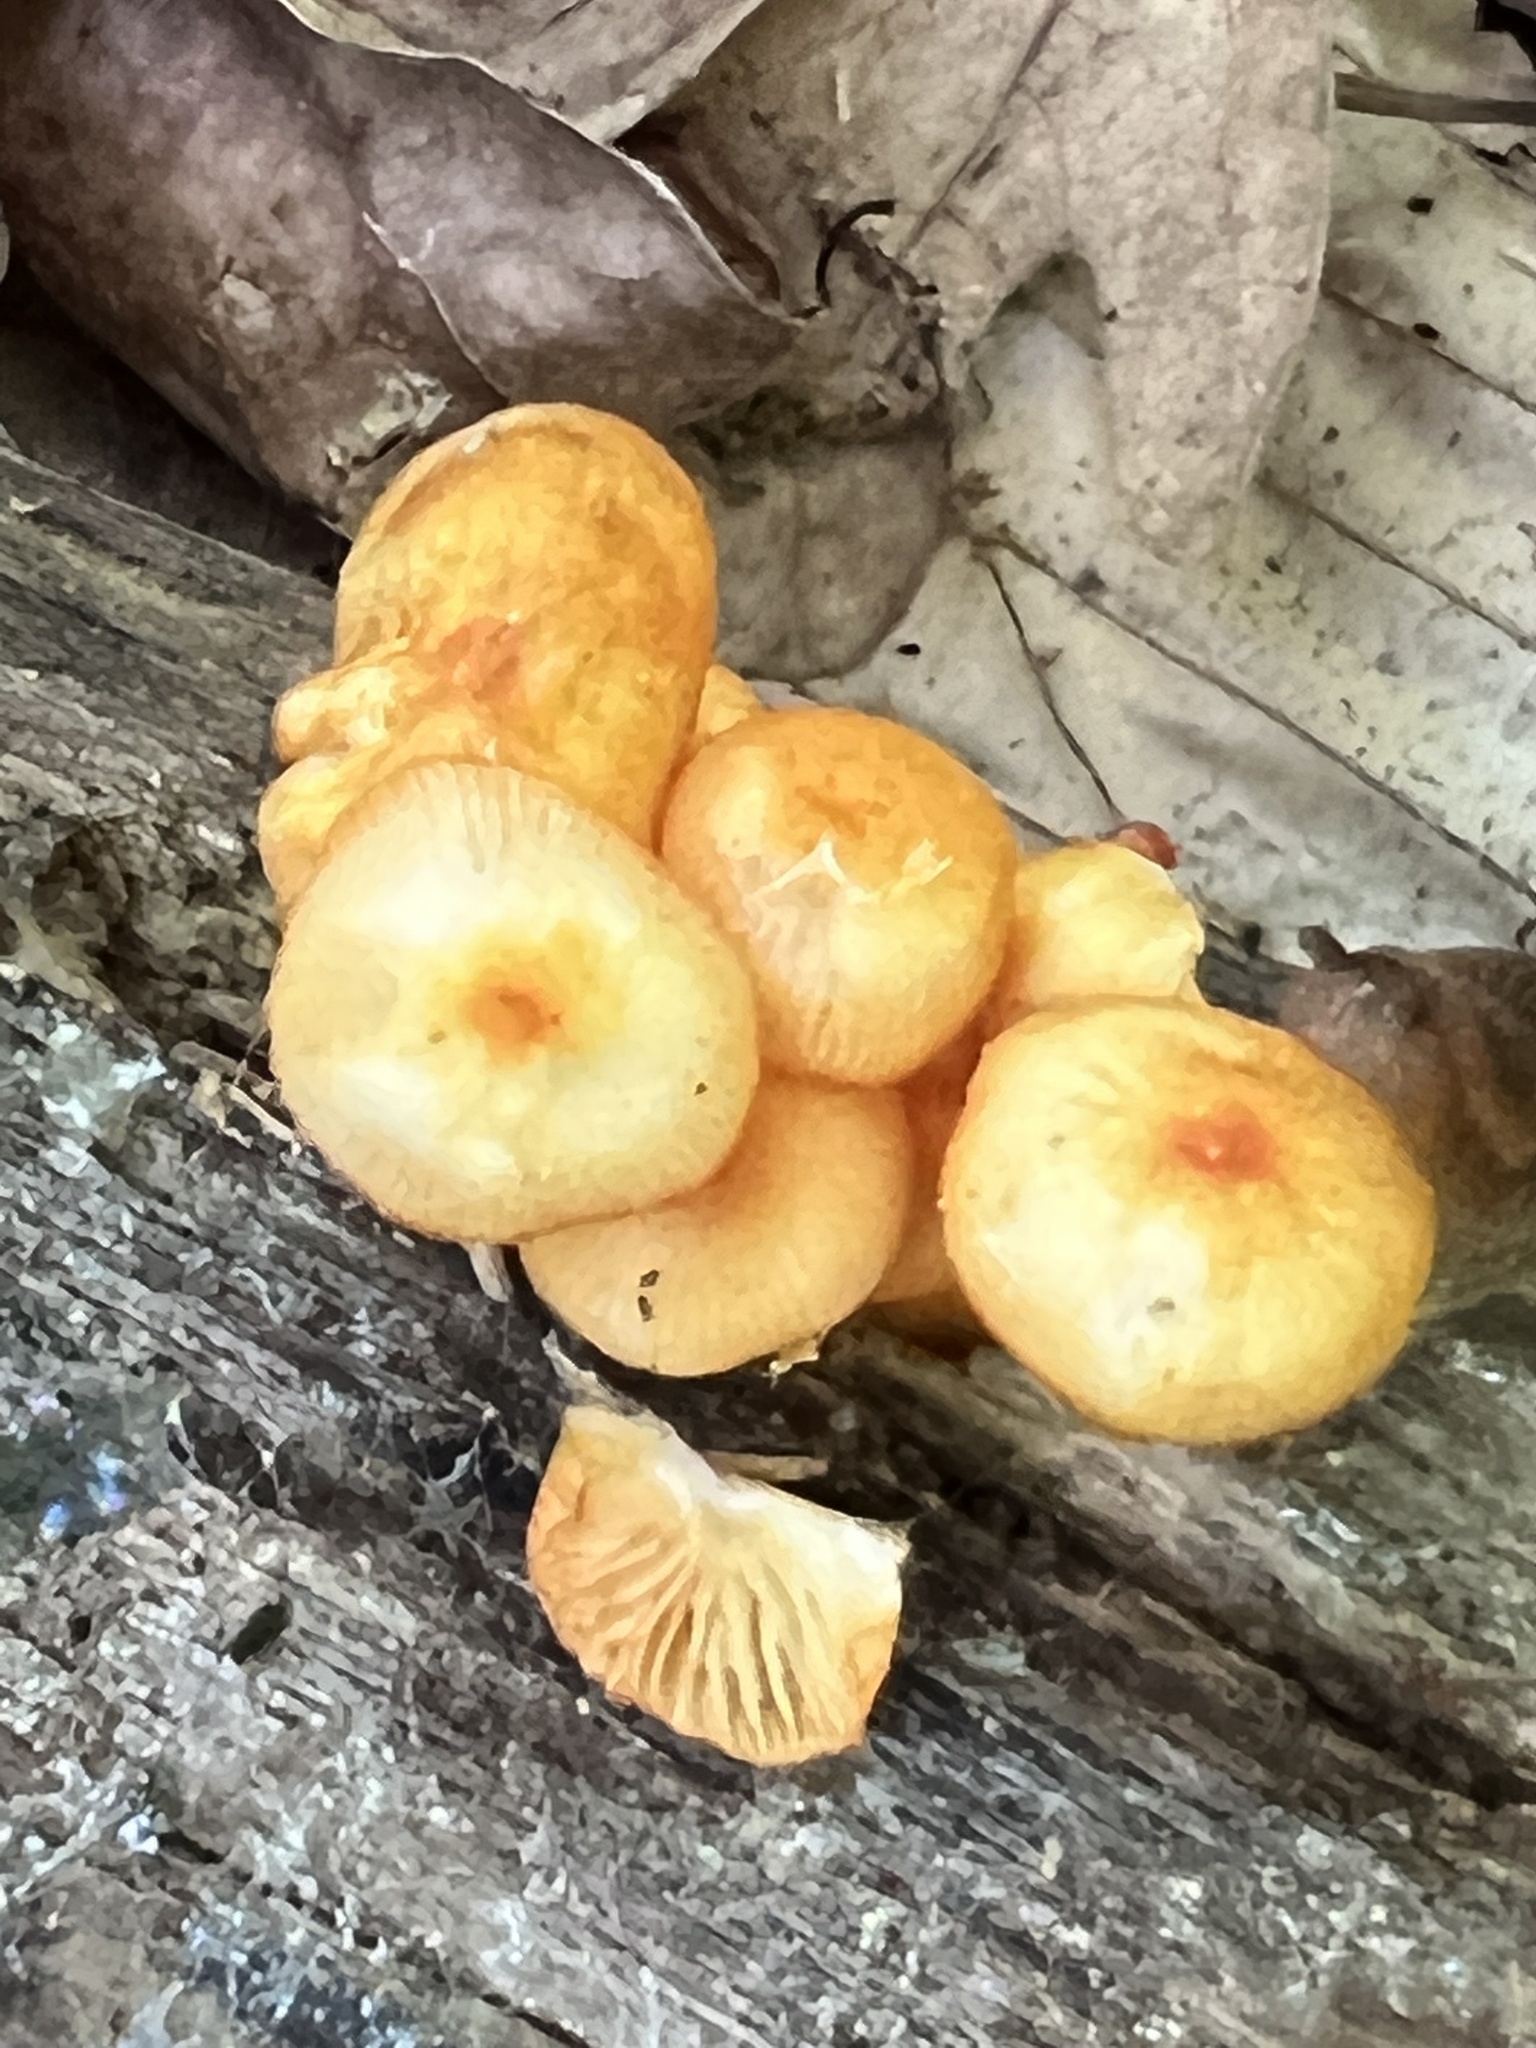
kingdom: Fungi
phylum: Basidiomycota
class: Agaricomycetes
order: Agaricales
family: Mycenaceae
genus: Mycena
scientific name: Mycena leaiana
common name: Orange mycena
